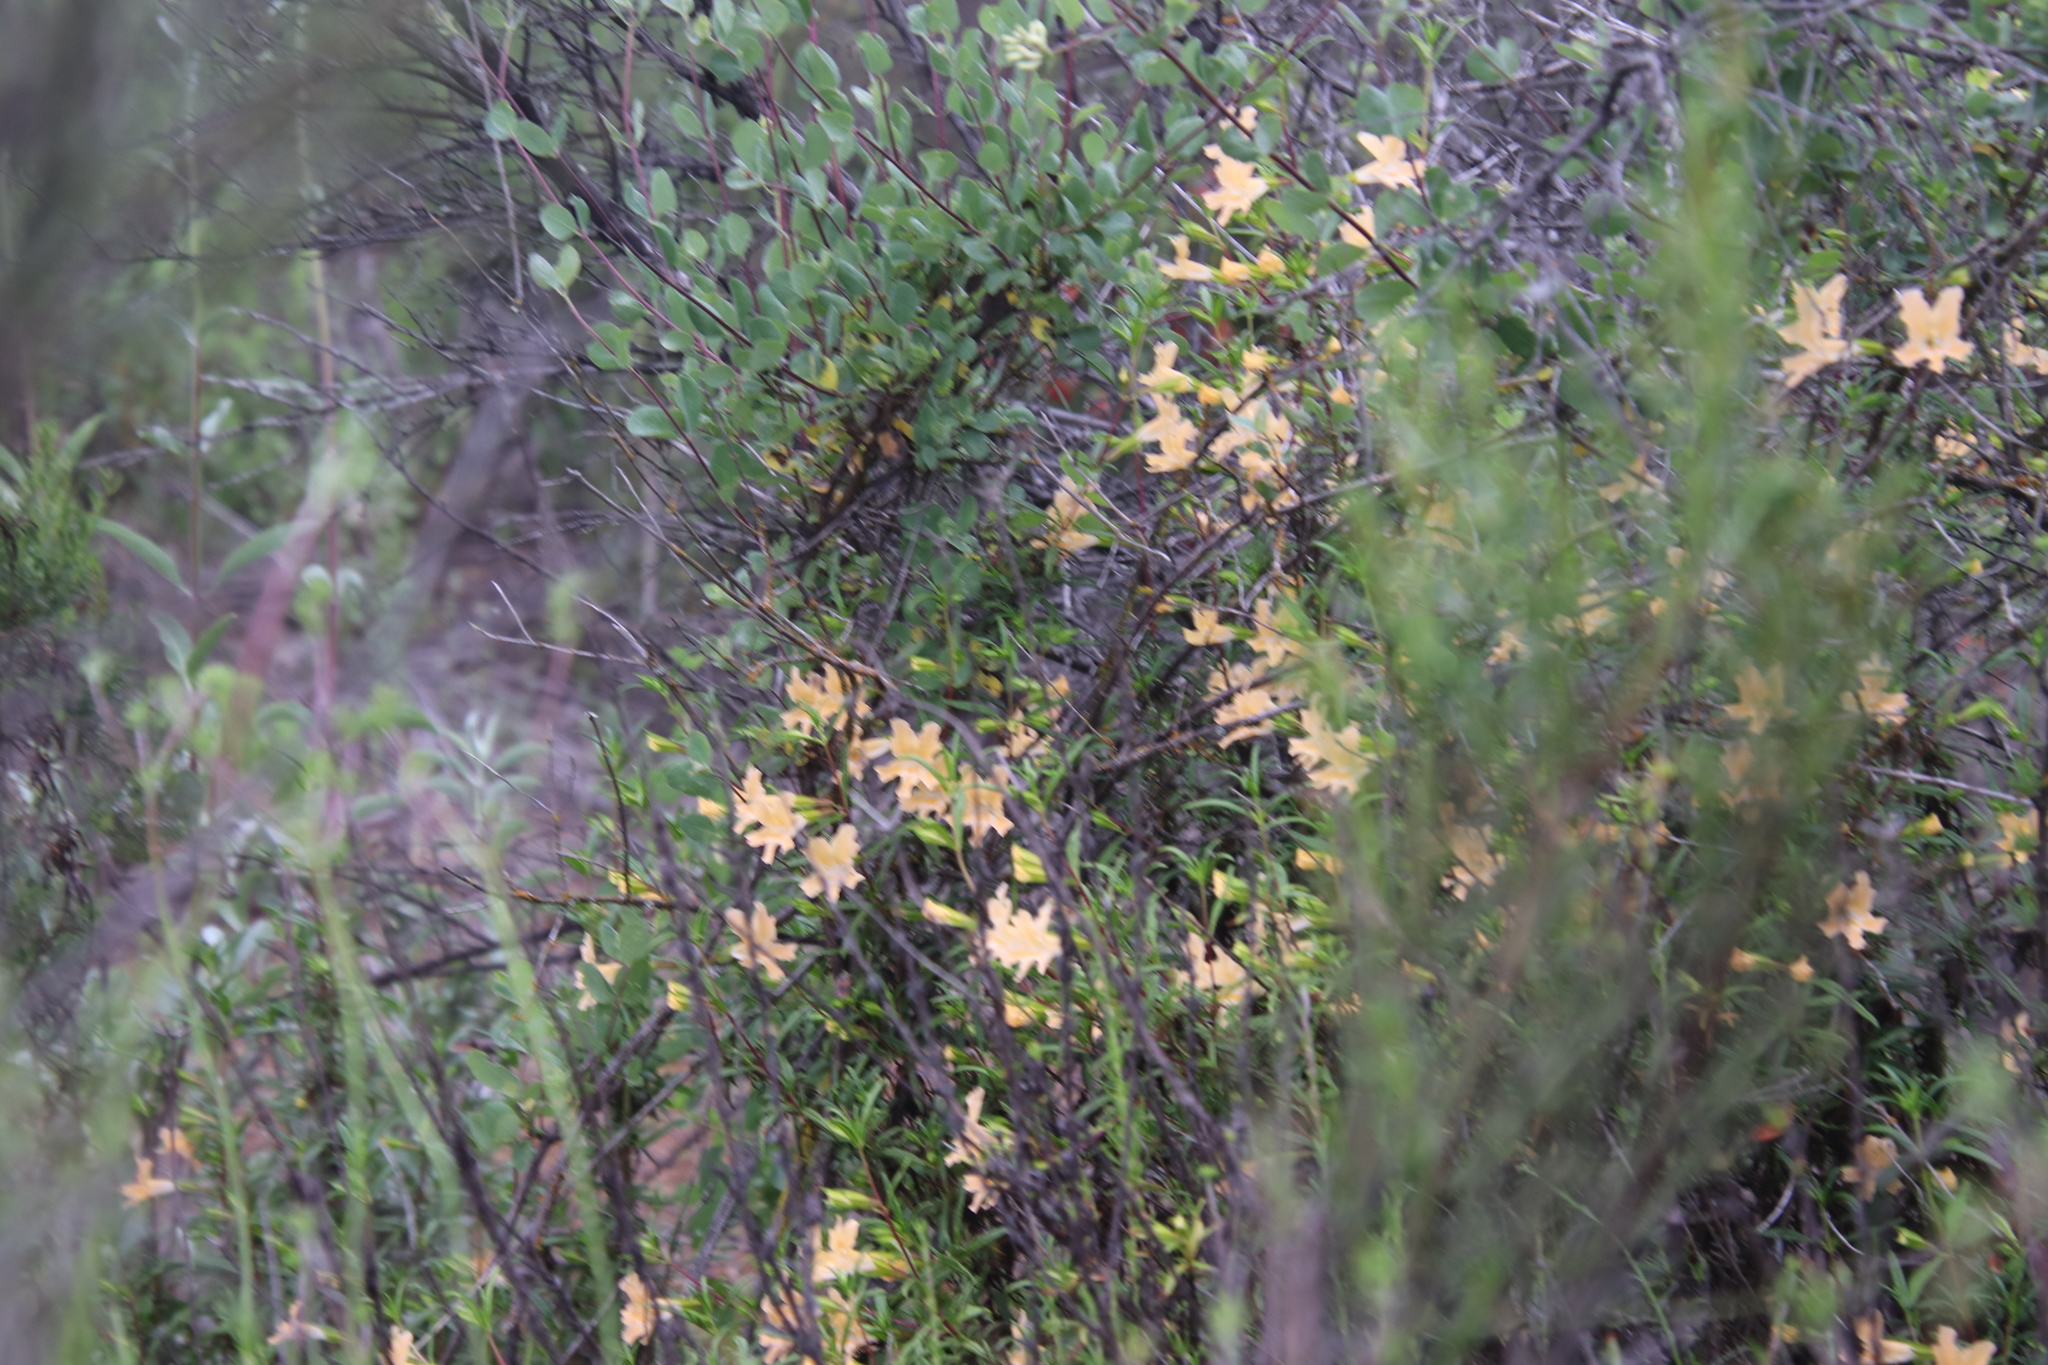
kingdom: Plantae
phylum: Tracheophyta
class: Magnoliopsida
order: Lamiales
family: Phrymaceae
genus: Diplacus
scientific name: Diplacus australis
